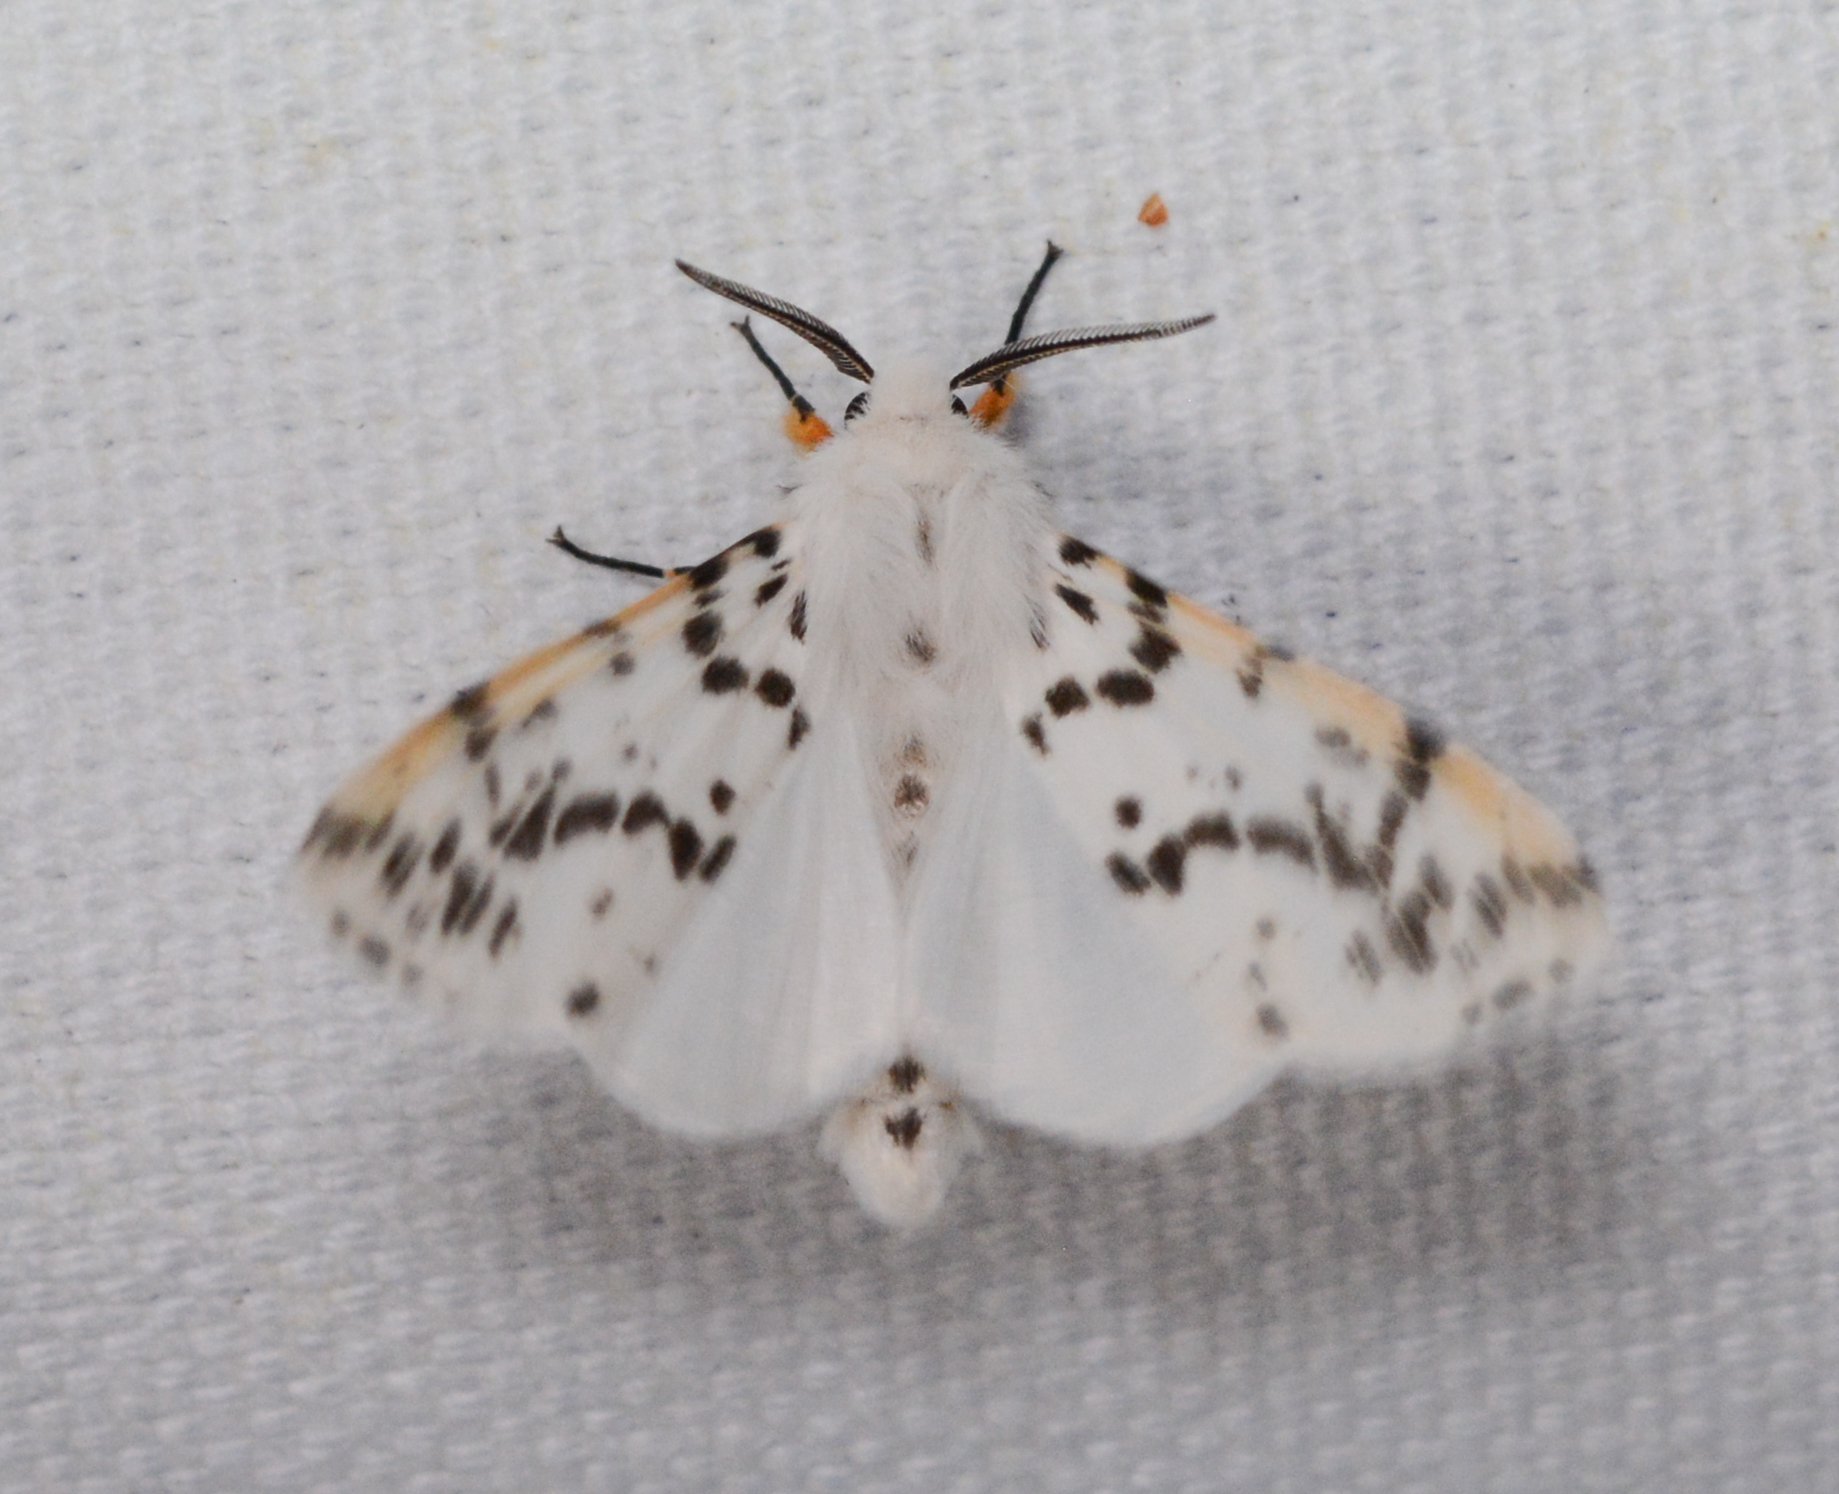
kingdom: Animalia
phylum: Arthropoda
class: Insecta
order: Lepidoptera
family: Erebidae
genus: Hyphantria
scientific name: Hyphantria cunea
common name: American white moth
